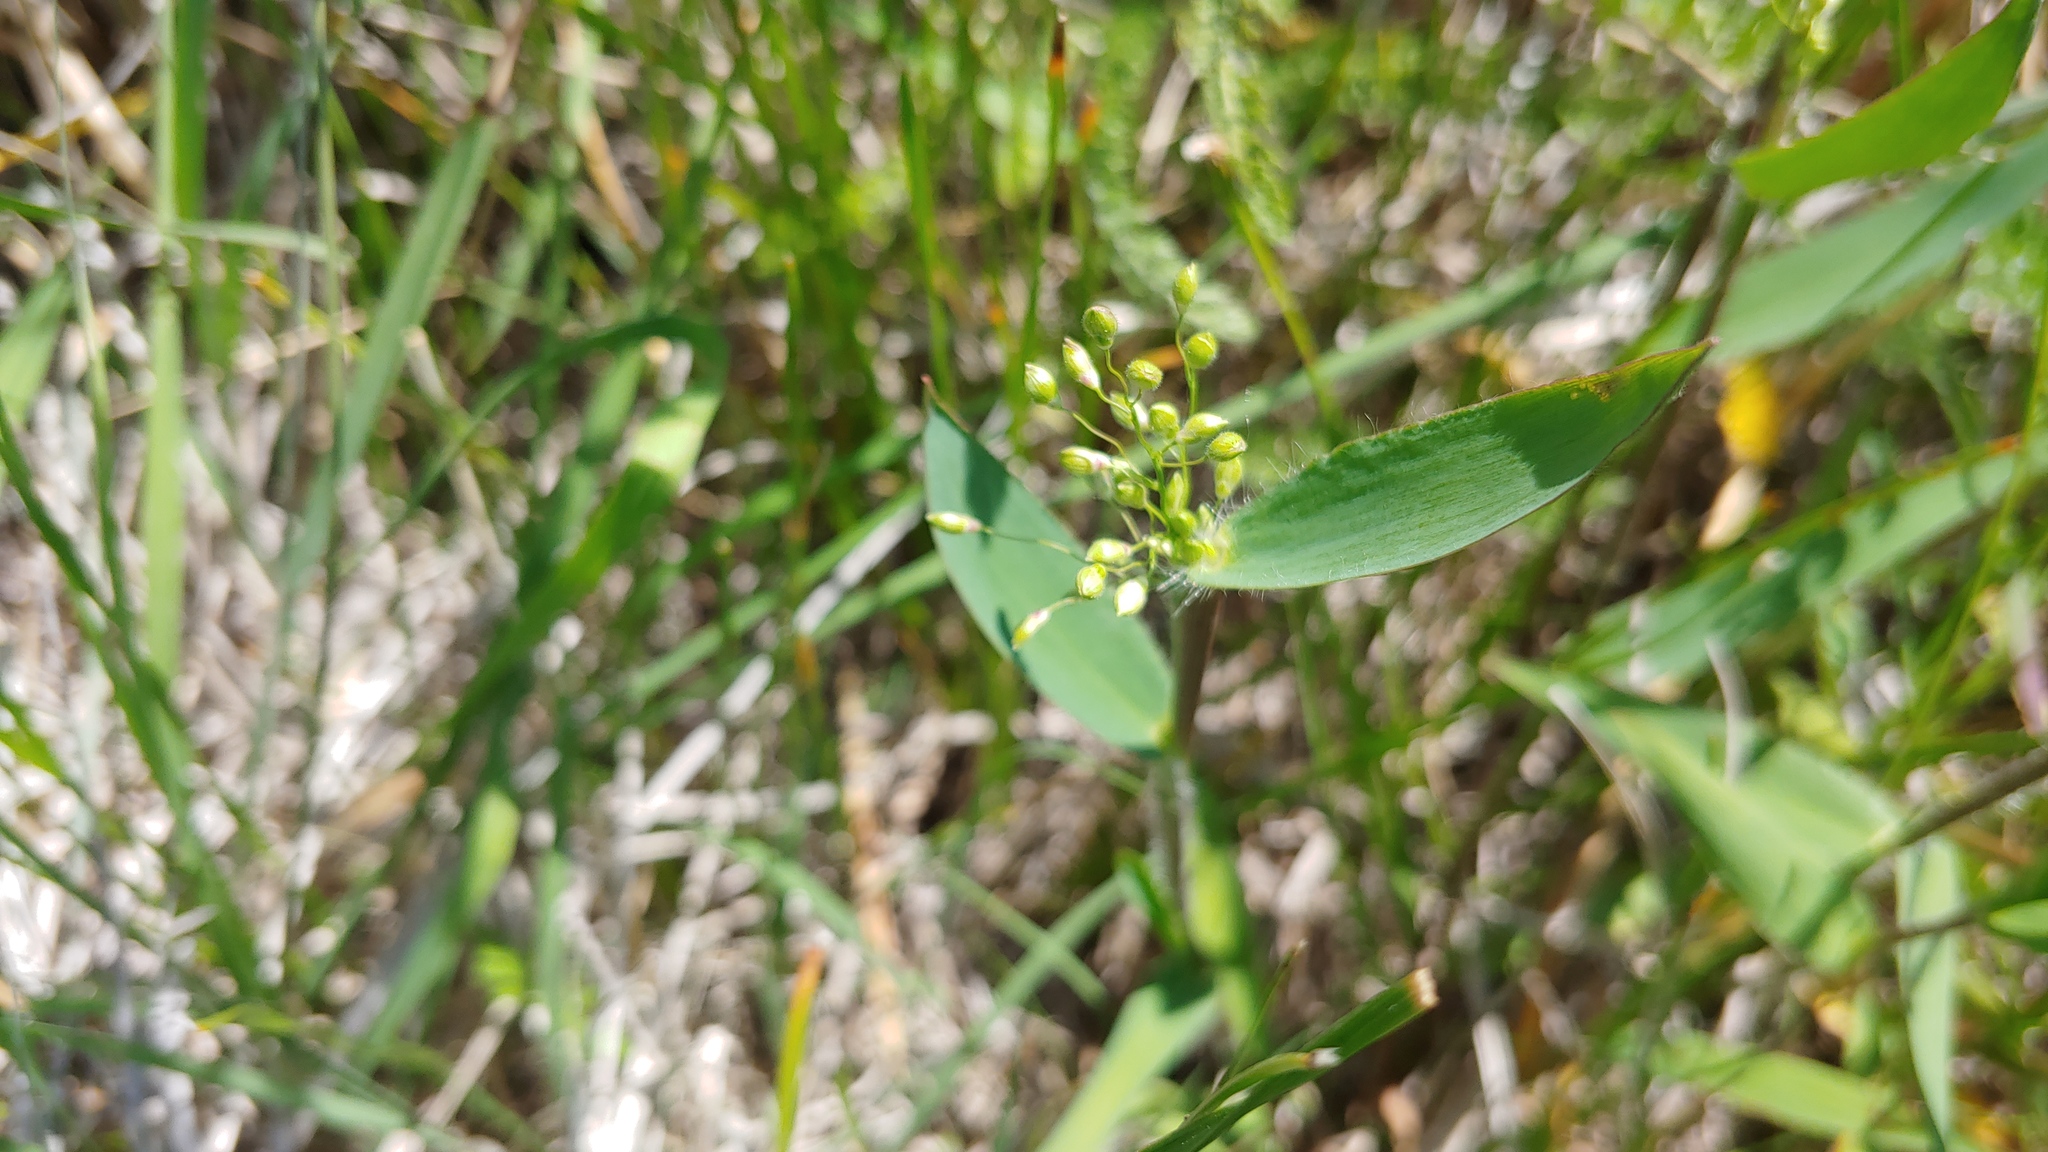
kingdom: Plantae
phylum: Tracheophyta
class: Liliopsida
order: Poales
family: Poaceae
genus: Dichanthelium
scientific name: Dichanthelium scribnerianum
